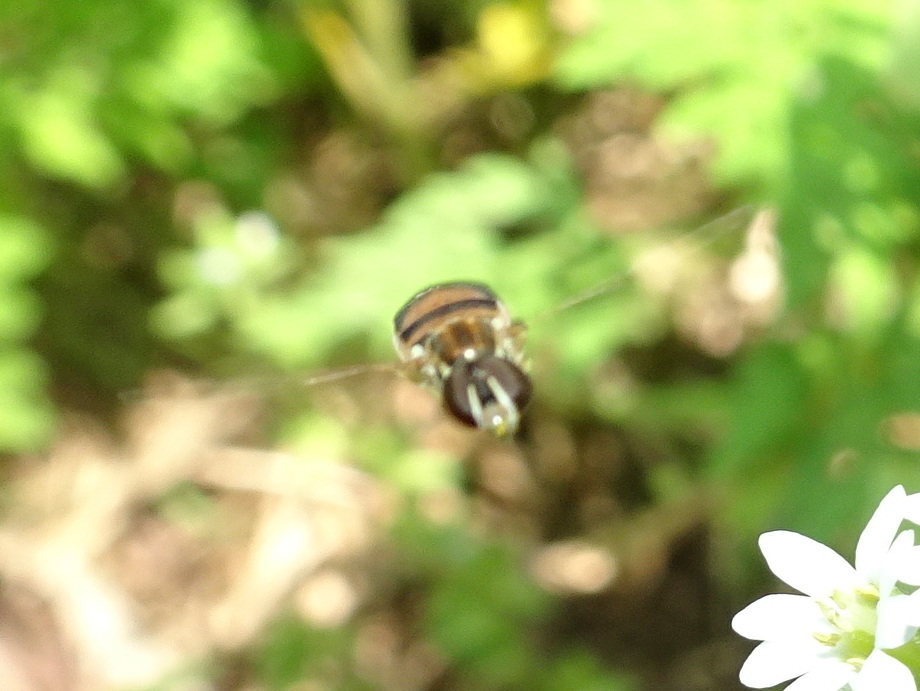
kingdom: Animalia
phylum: Arthropoda
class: Insecta
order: Diptera
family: Syrphidae
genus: Toxomerus
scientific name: Toxomerus marginatus
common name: Syrphid fly
